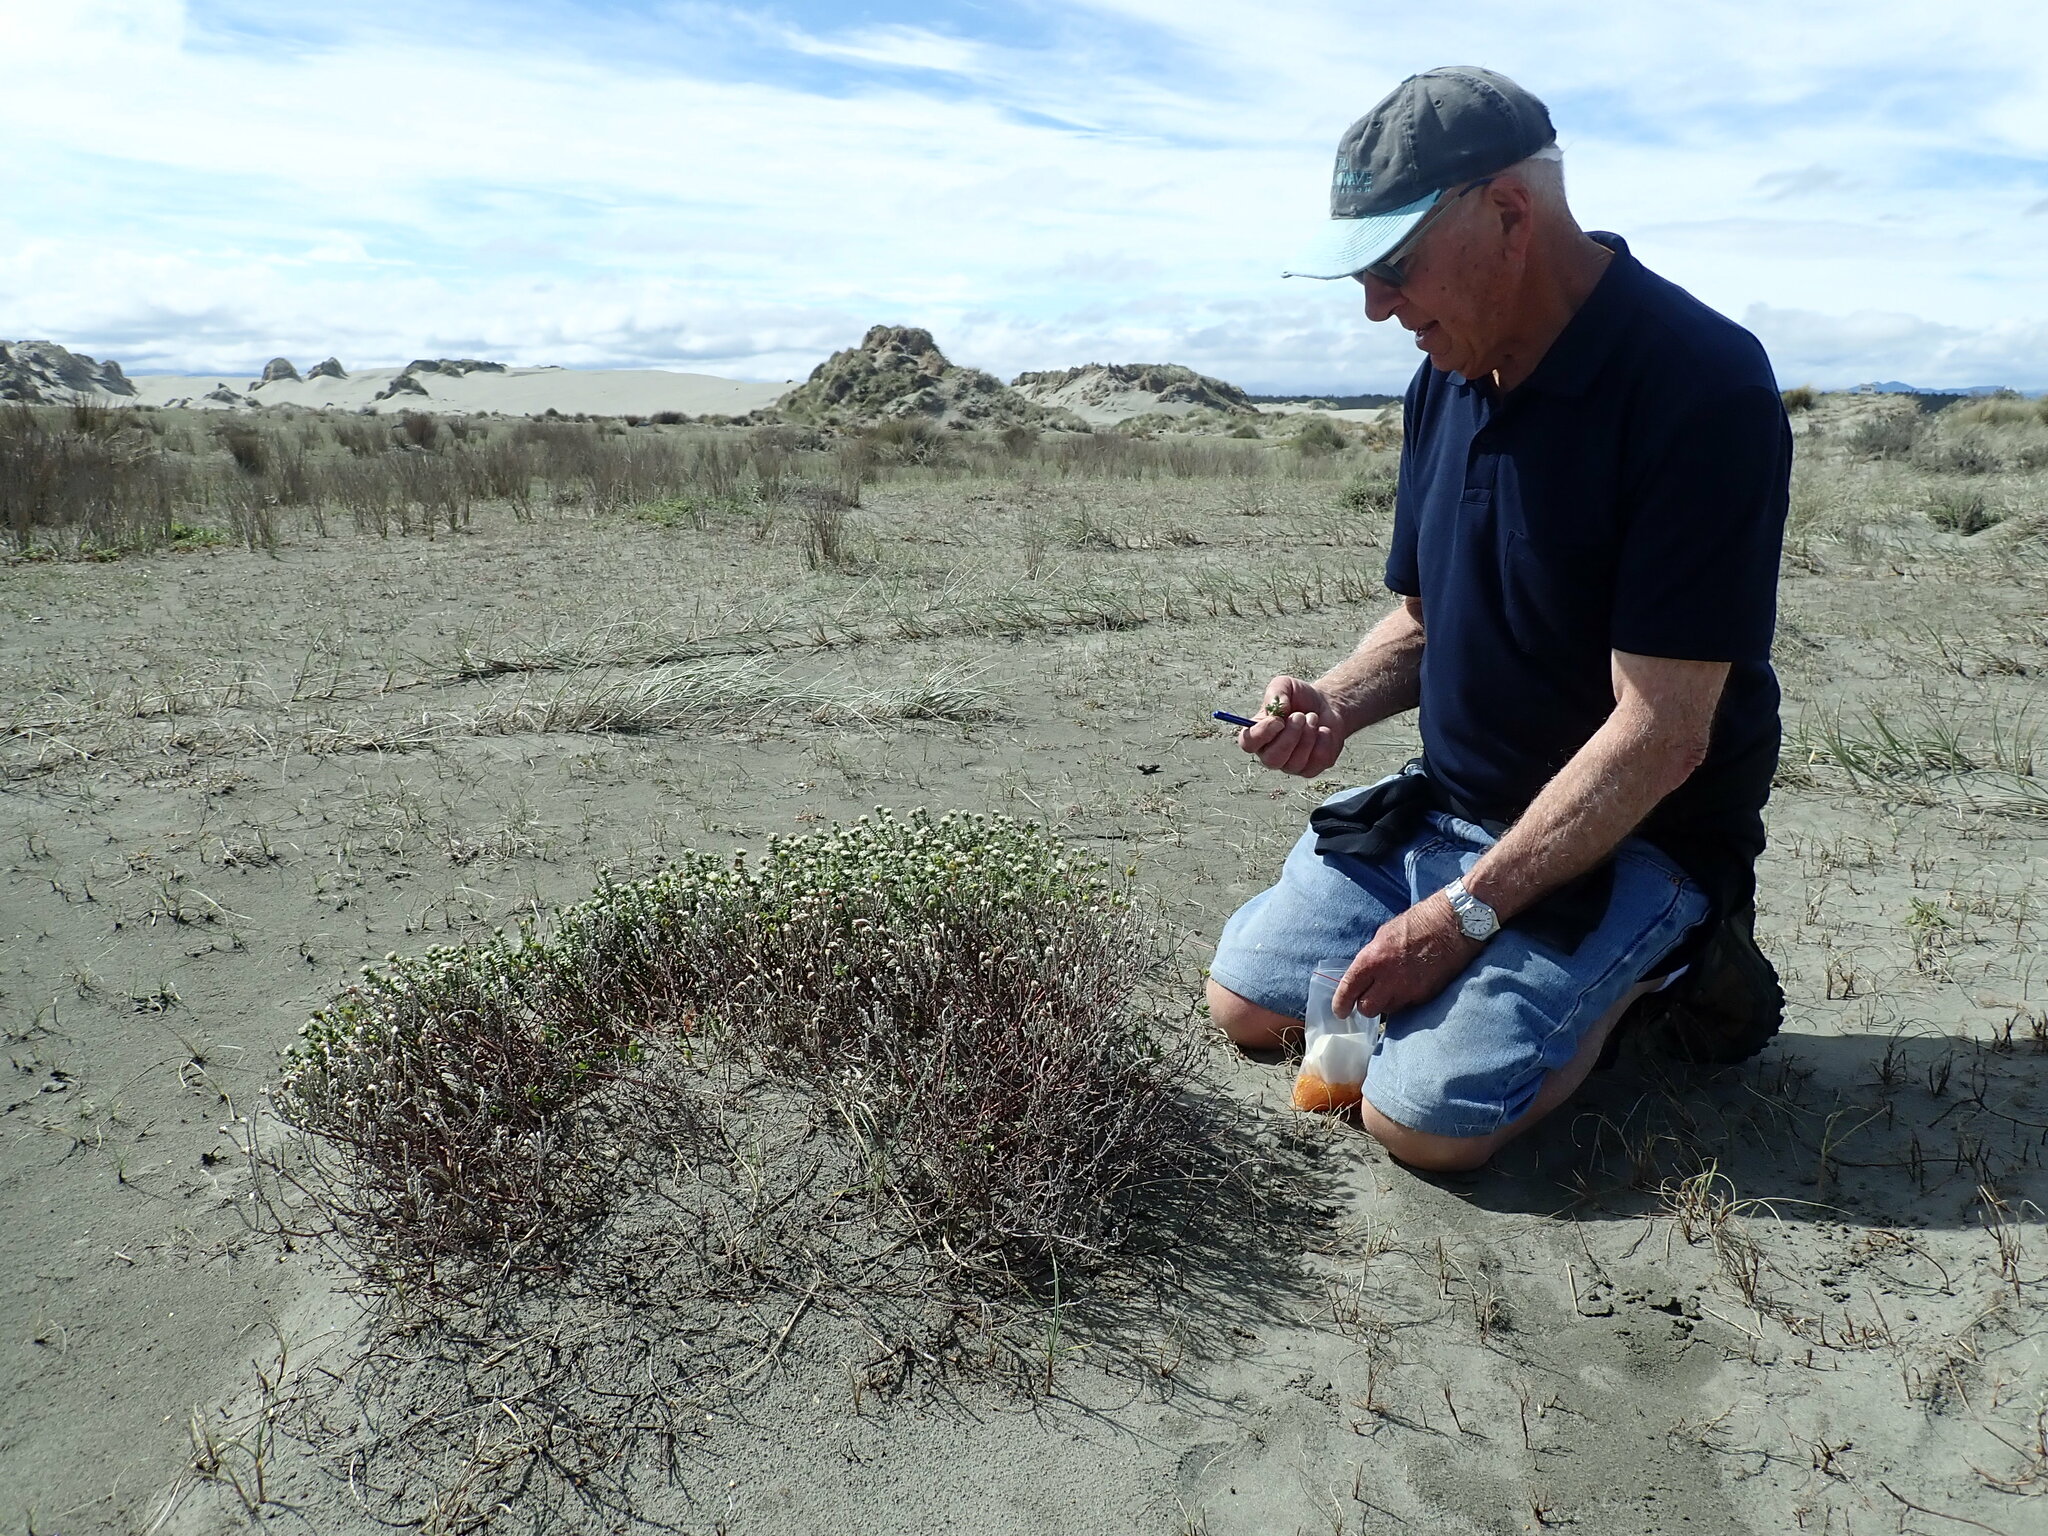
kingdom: Plantae
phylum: Tracheophyta
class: Magnoliopsida
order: Malvales
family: Thymelaeaceae
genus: Pimelea
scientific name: Pimelea villosa
